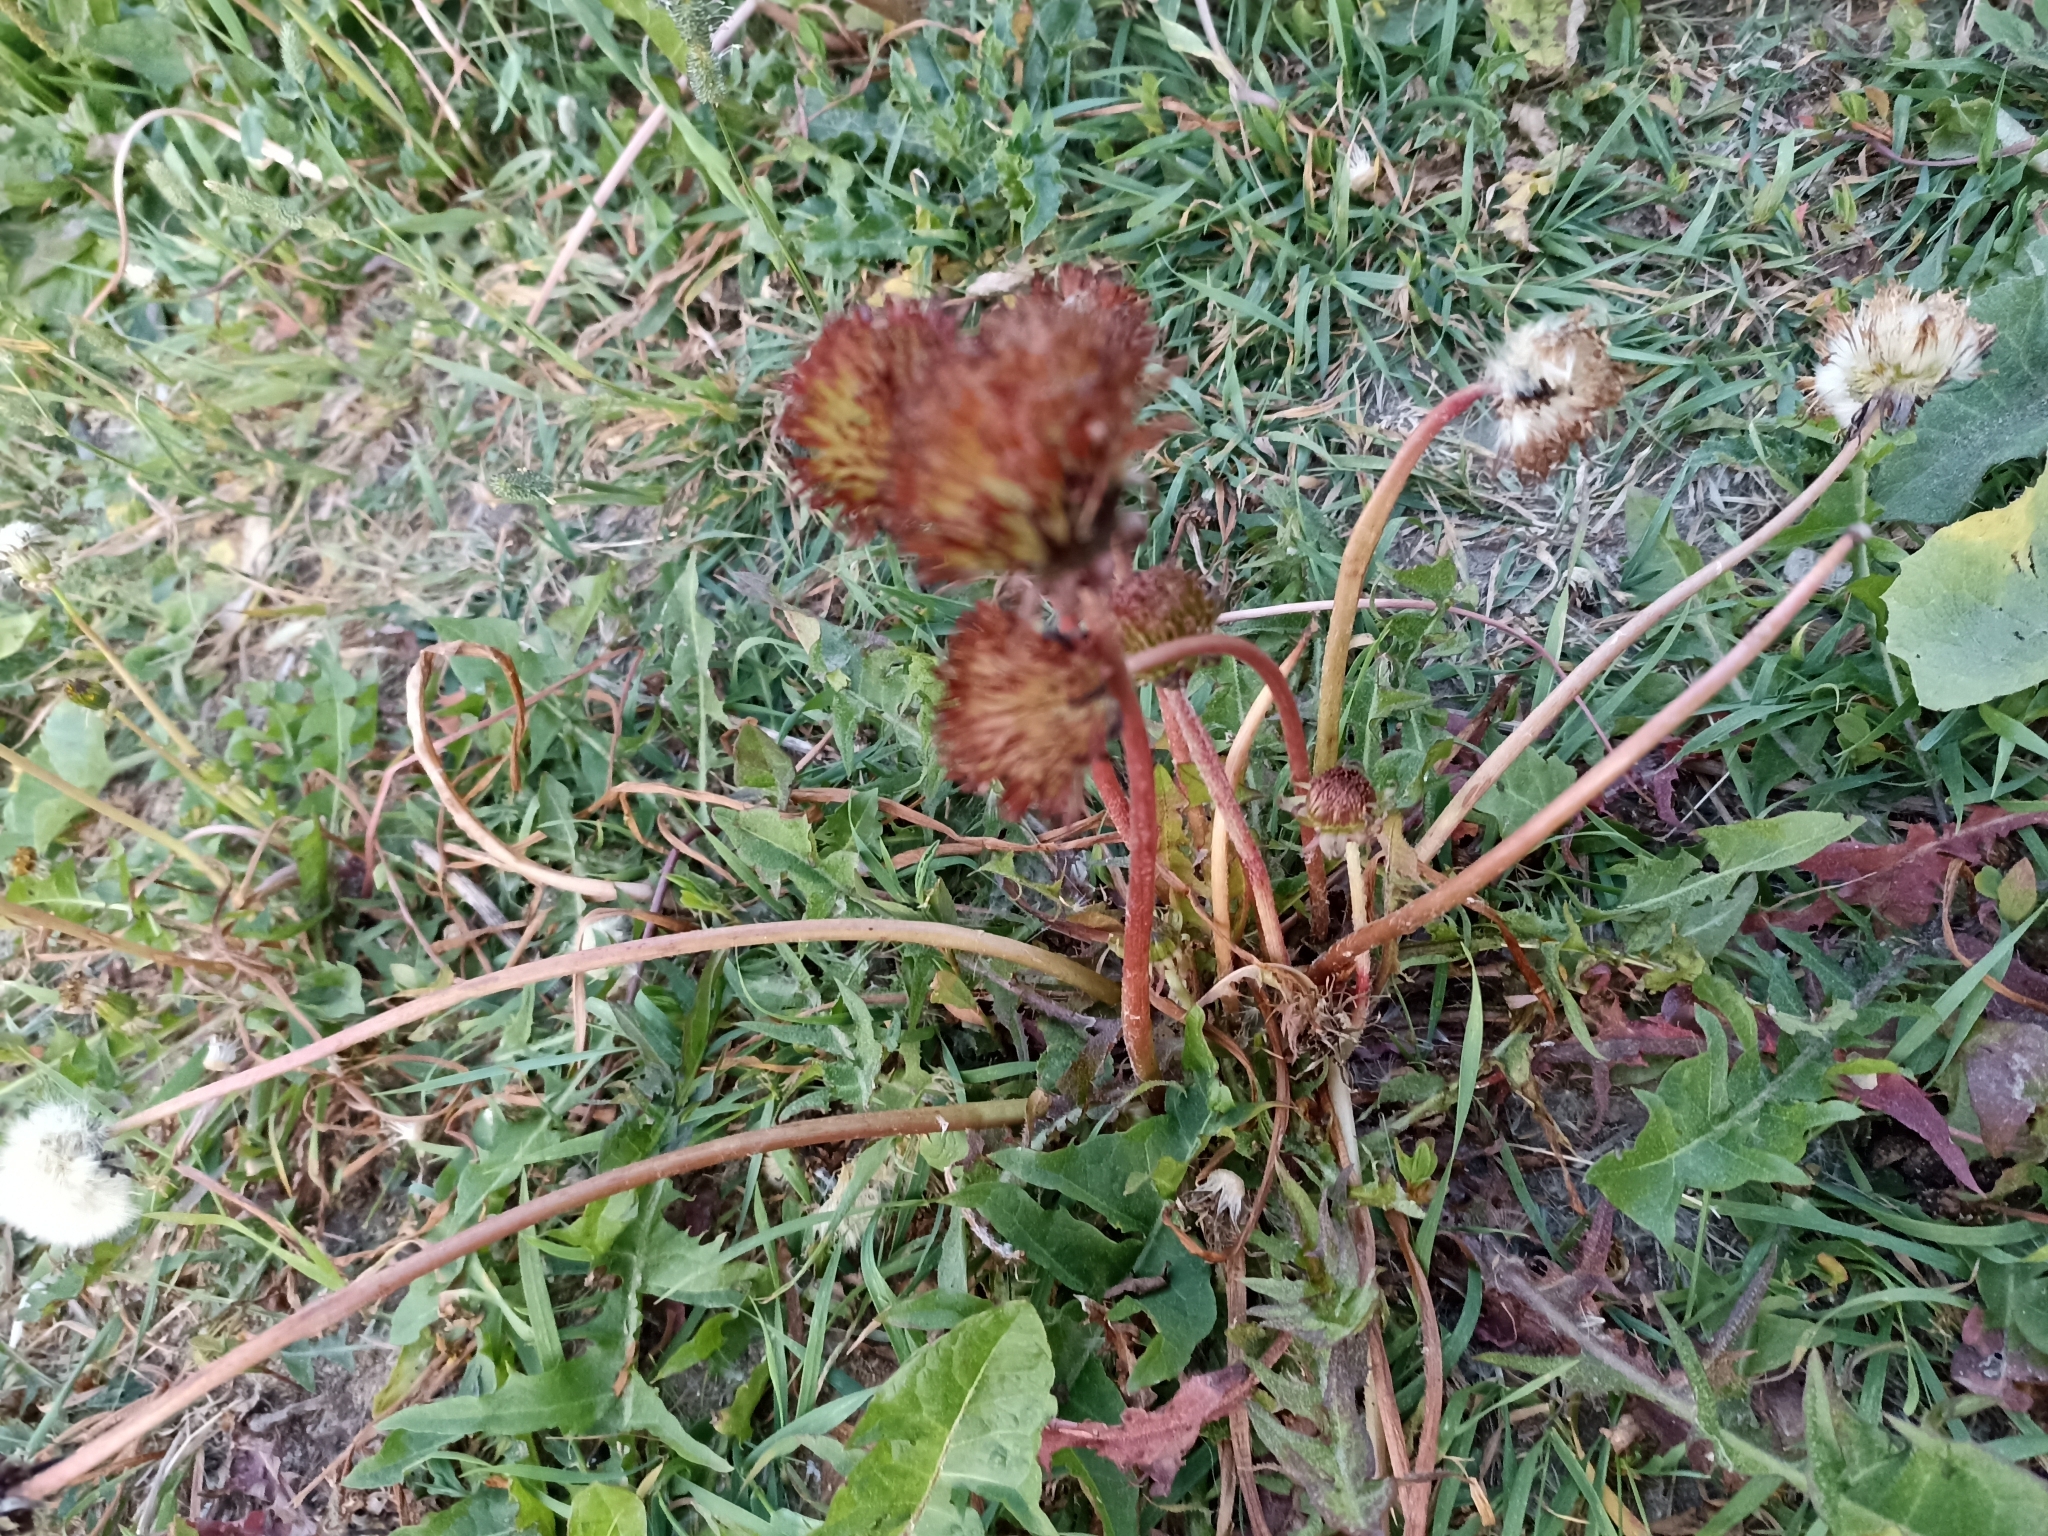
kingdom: Plantae
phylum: Tracheophyta
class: Magnoliopsida
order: Asterales
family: Asteraceae
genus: Taraxacum
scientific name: Taraxacum officinale
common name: Common dandelion
